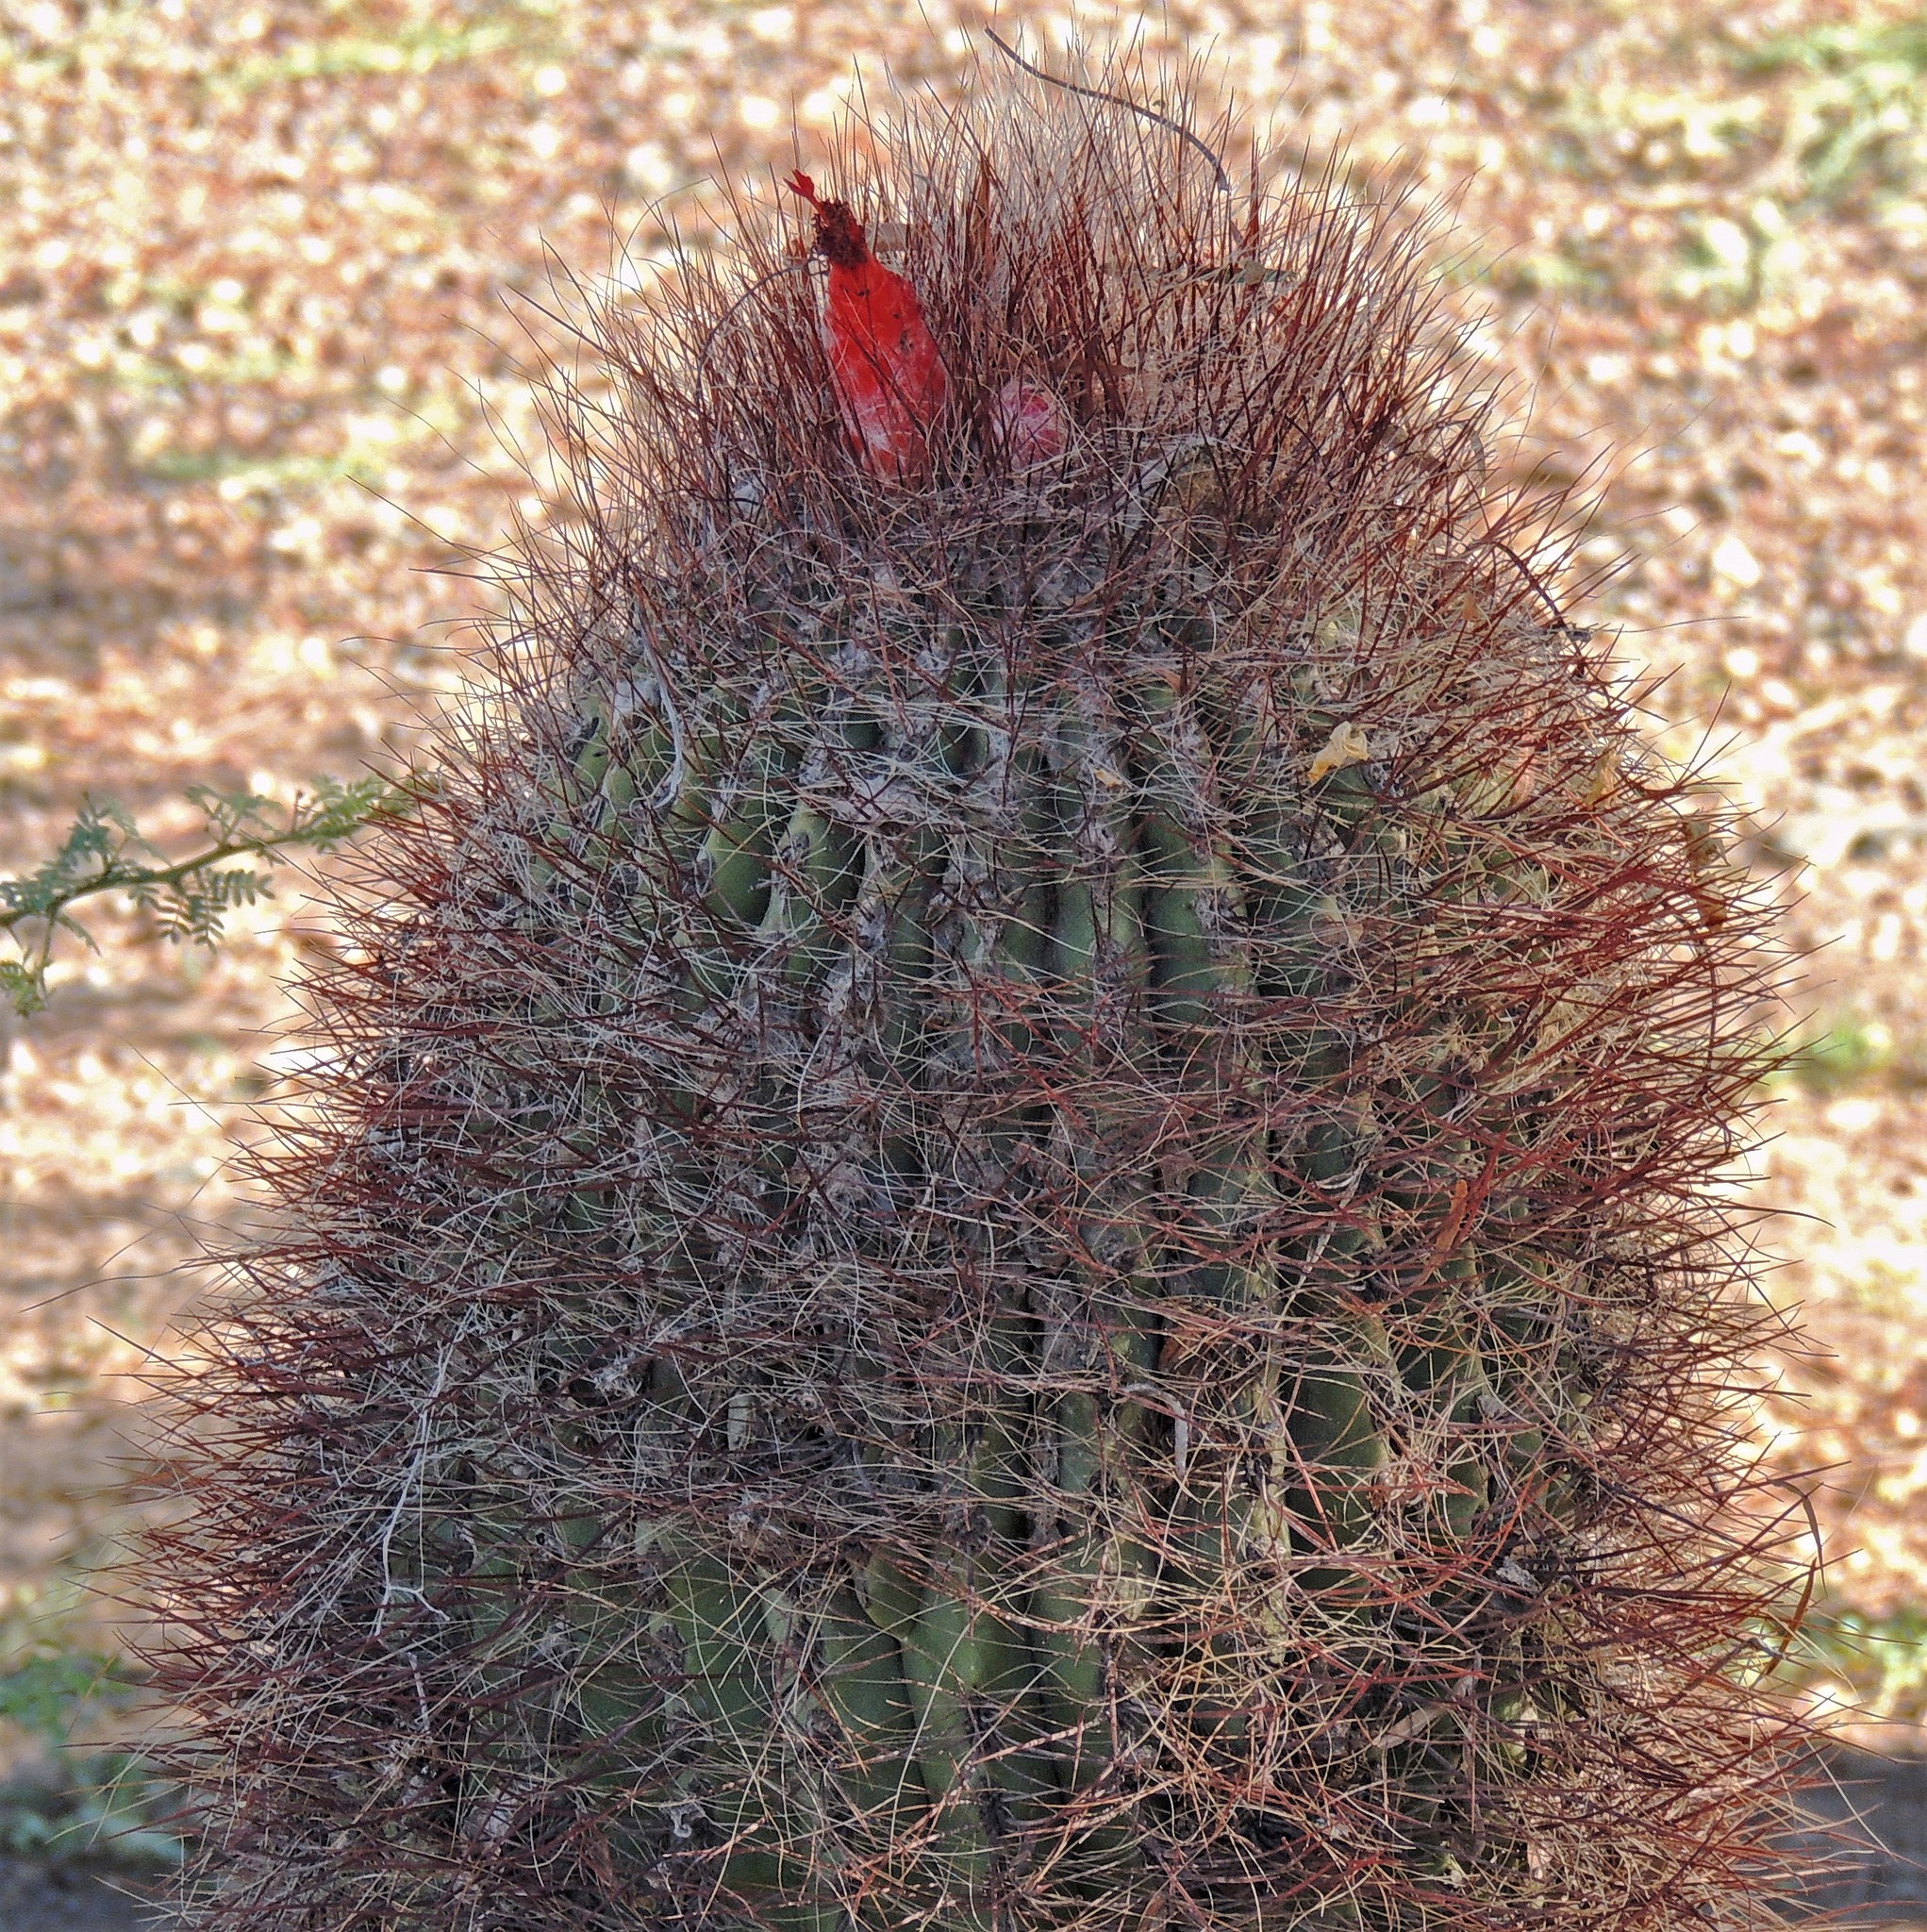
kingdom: Plantae
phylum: Tracheophyta
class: Magnoliopsida
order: Caryophyllales
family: Cactaceae
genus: Denmoza
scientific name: Denmoza rhodacantha
